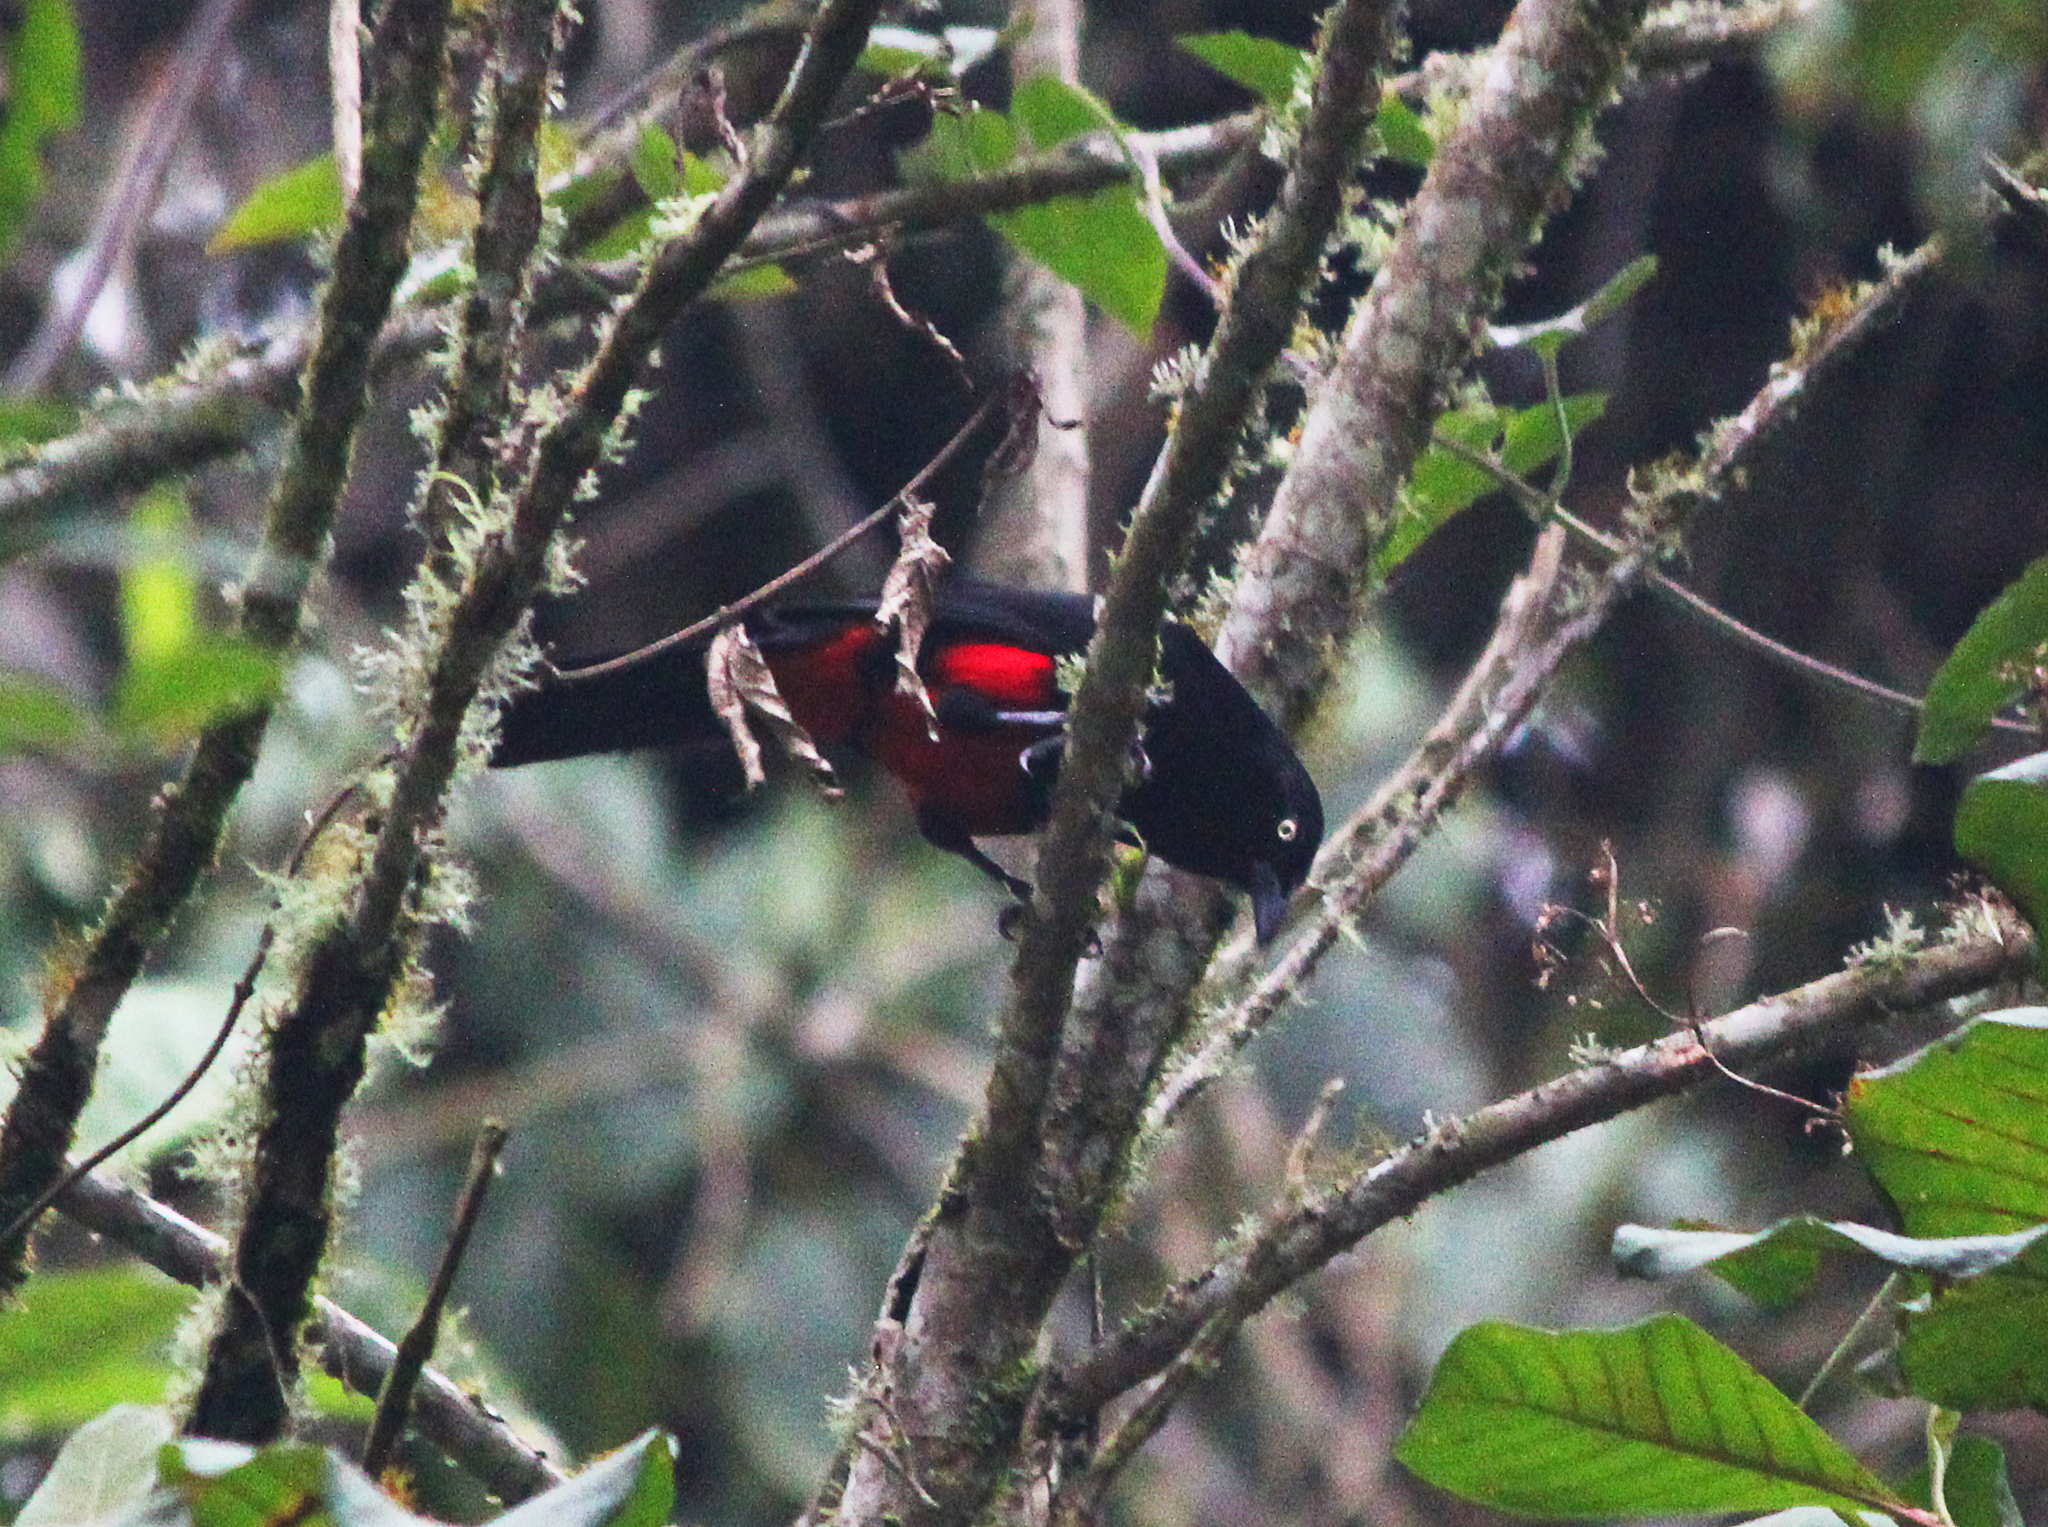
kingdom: Animalia
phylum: Chordata
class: Aves
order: Passeriformes
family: Icteridae
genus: Hypopyrrhus
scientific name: Hypopyrrhus pyrohypogaster
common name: Red-bellied grackle
